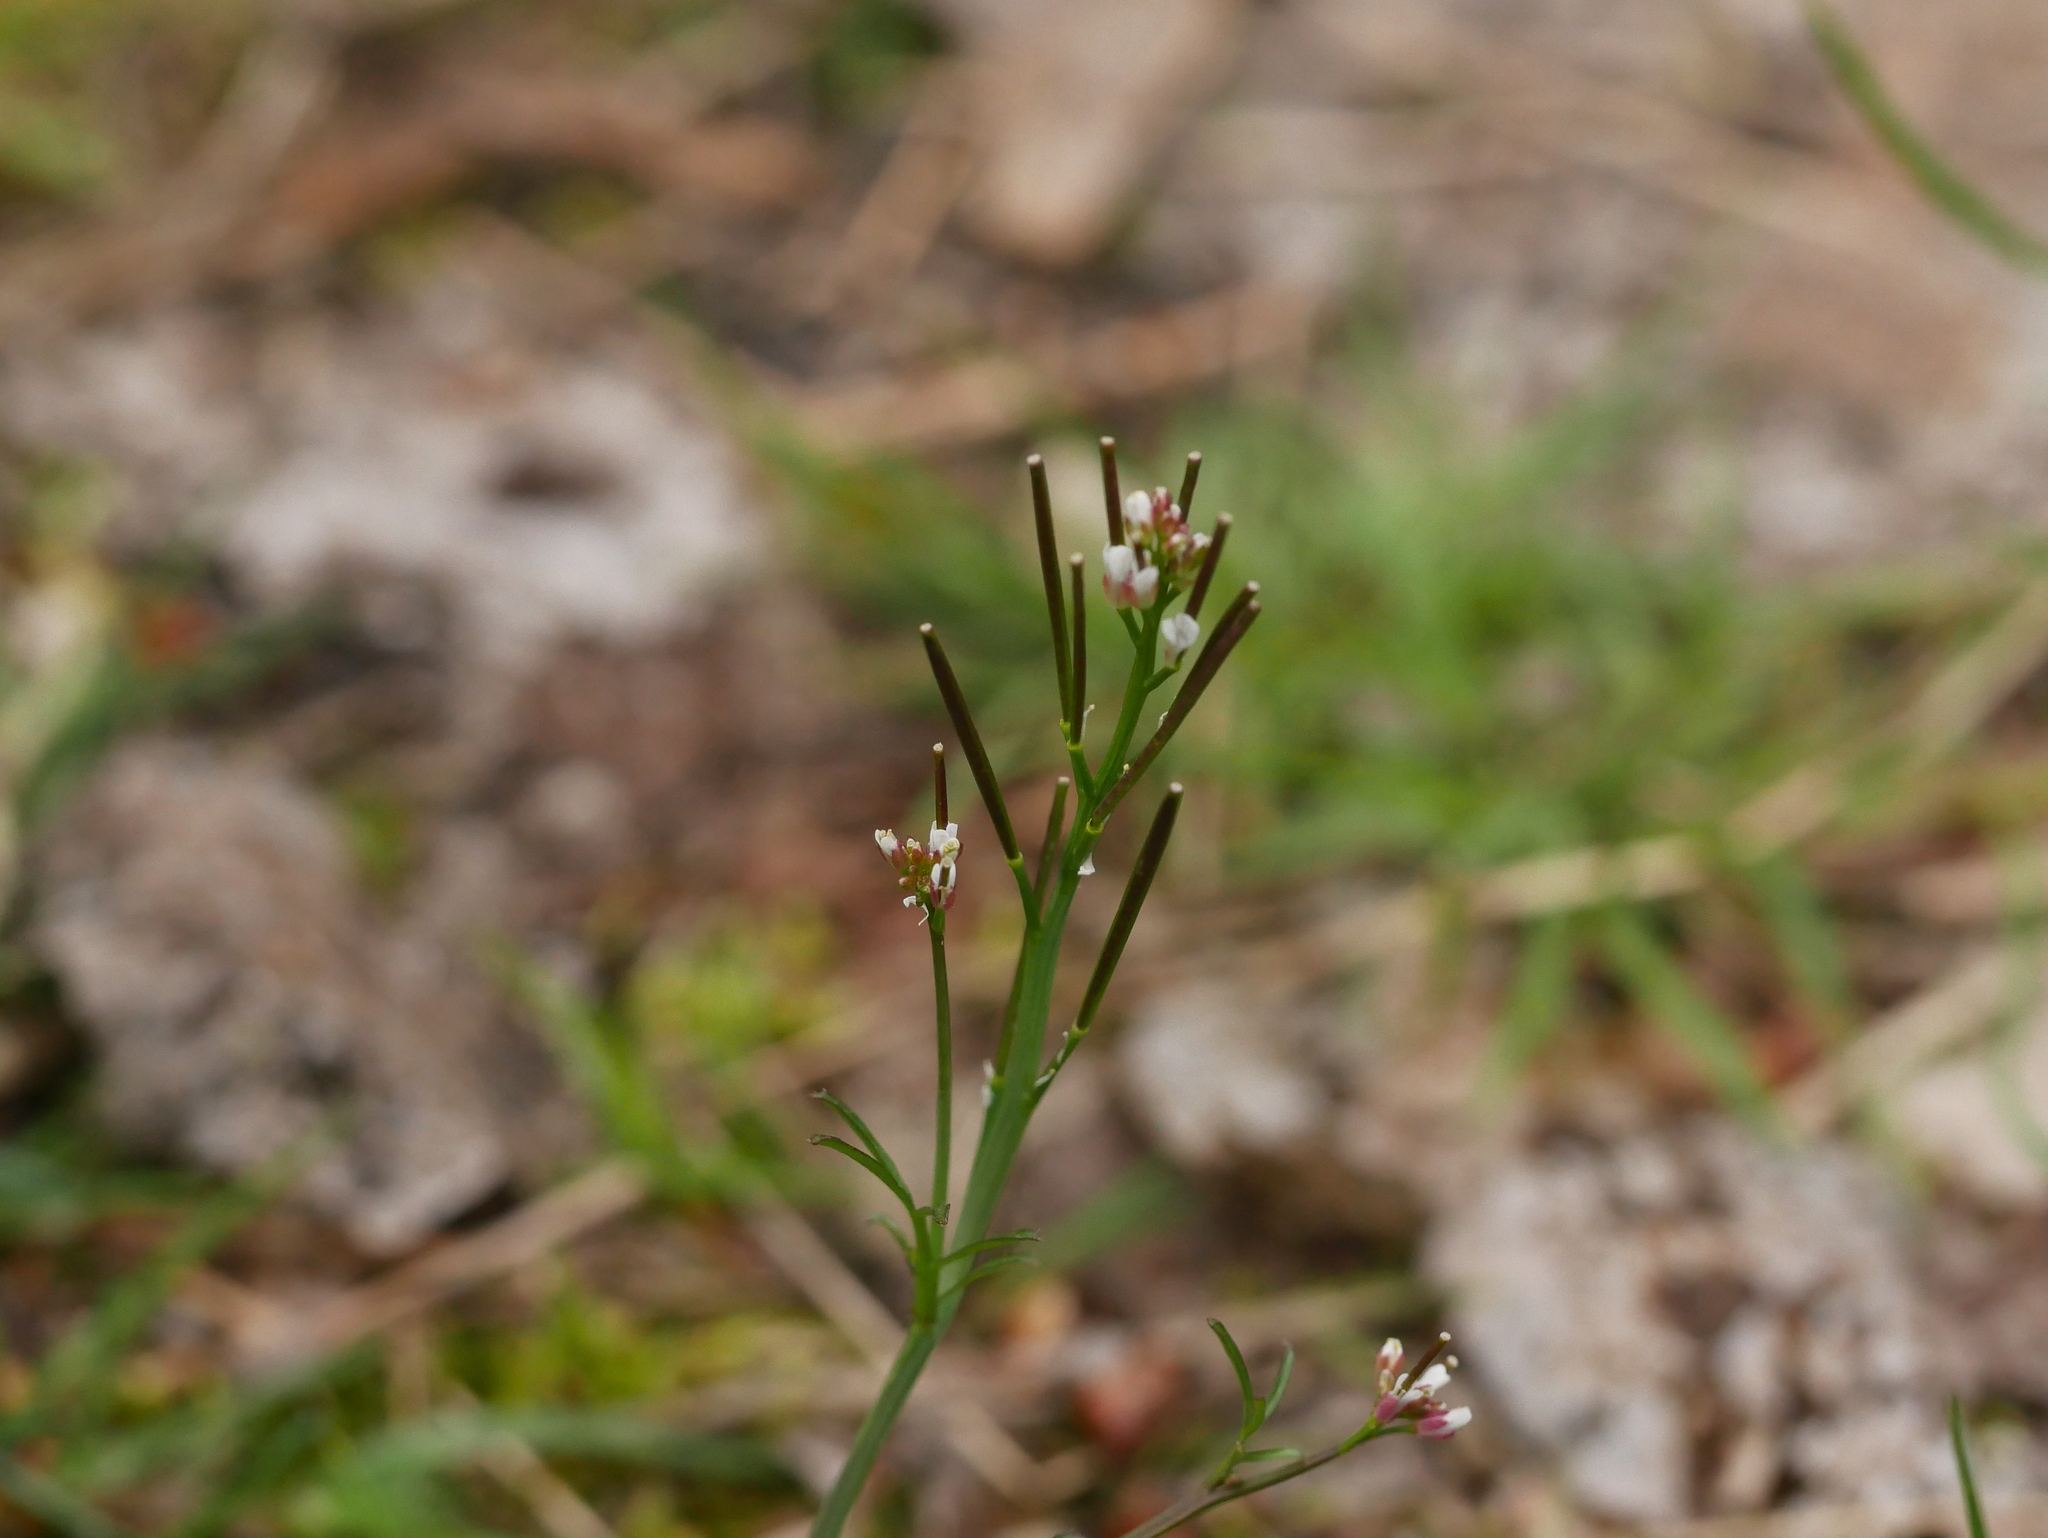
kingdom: Plantae
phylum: Tracheophyta
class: Magnoliopsida
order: Brassicales
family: Brassicaceae
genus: Cardamine
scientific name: Cardamine hirsuta
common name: Hairy bittercress
